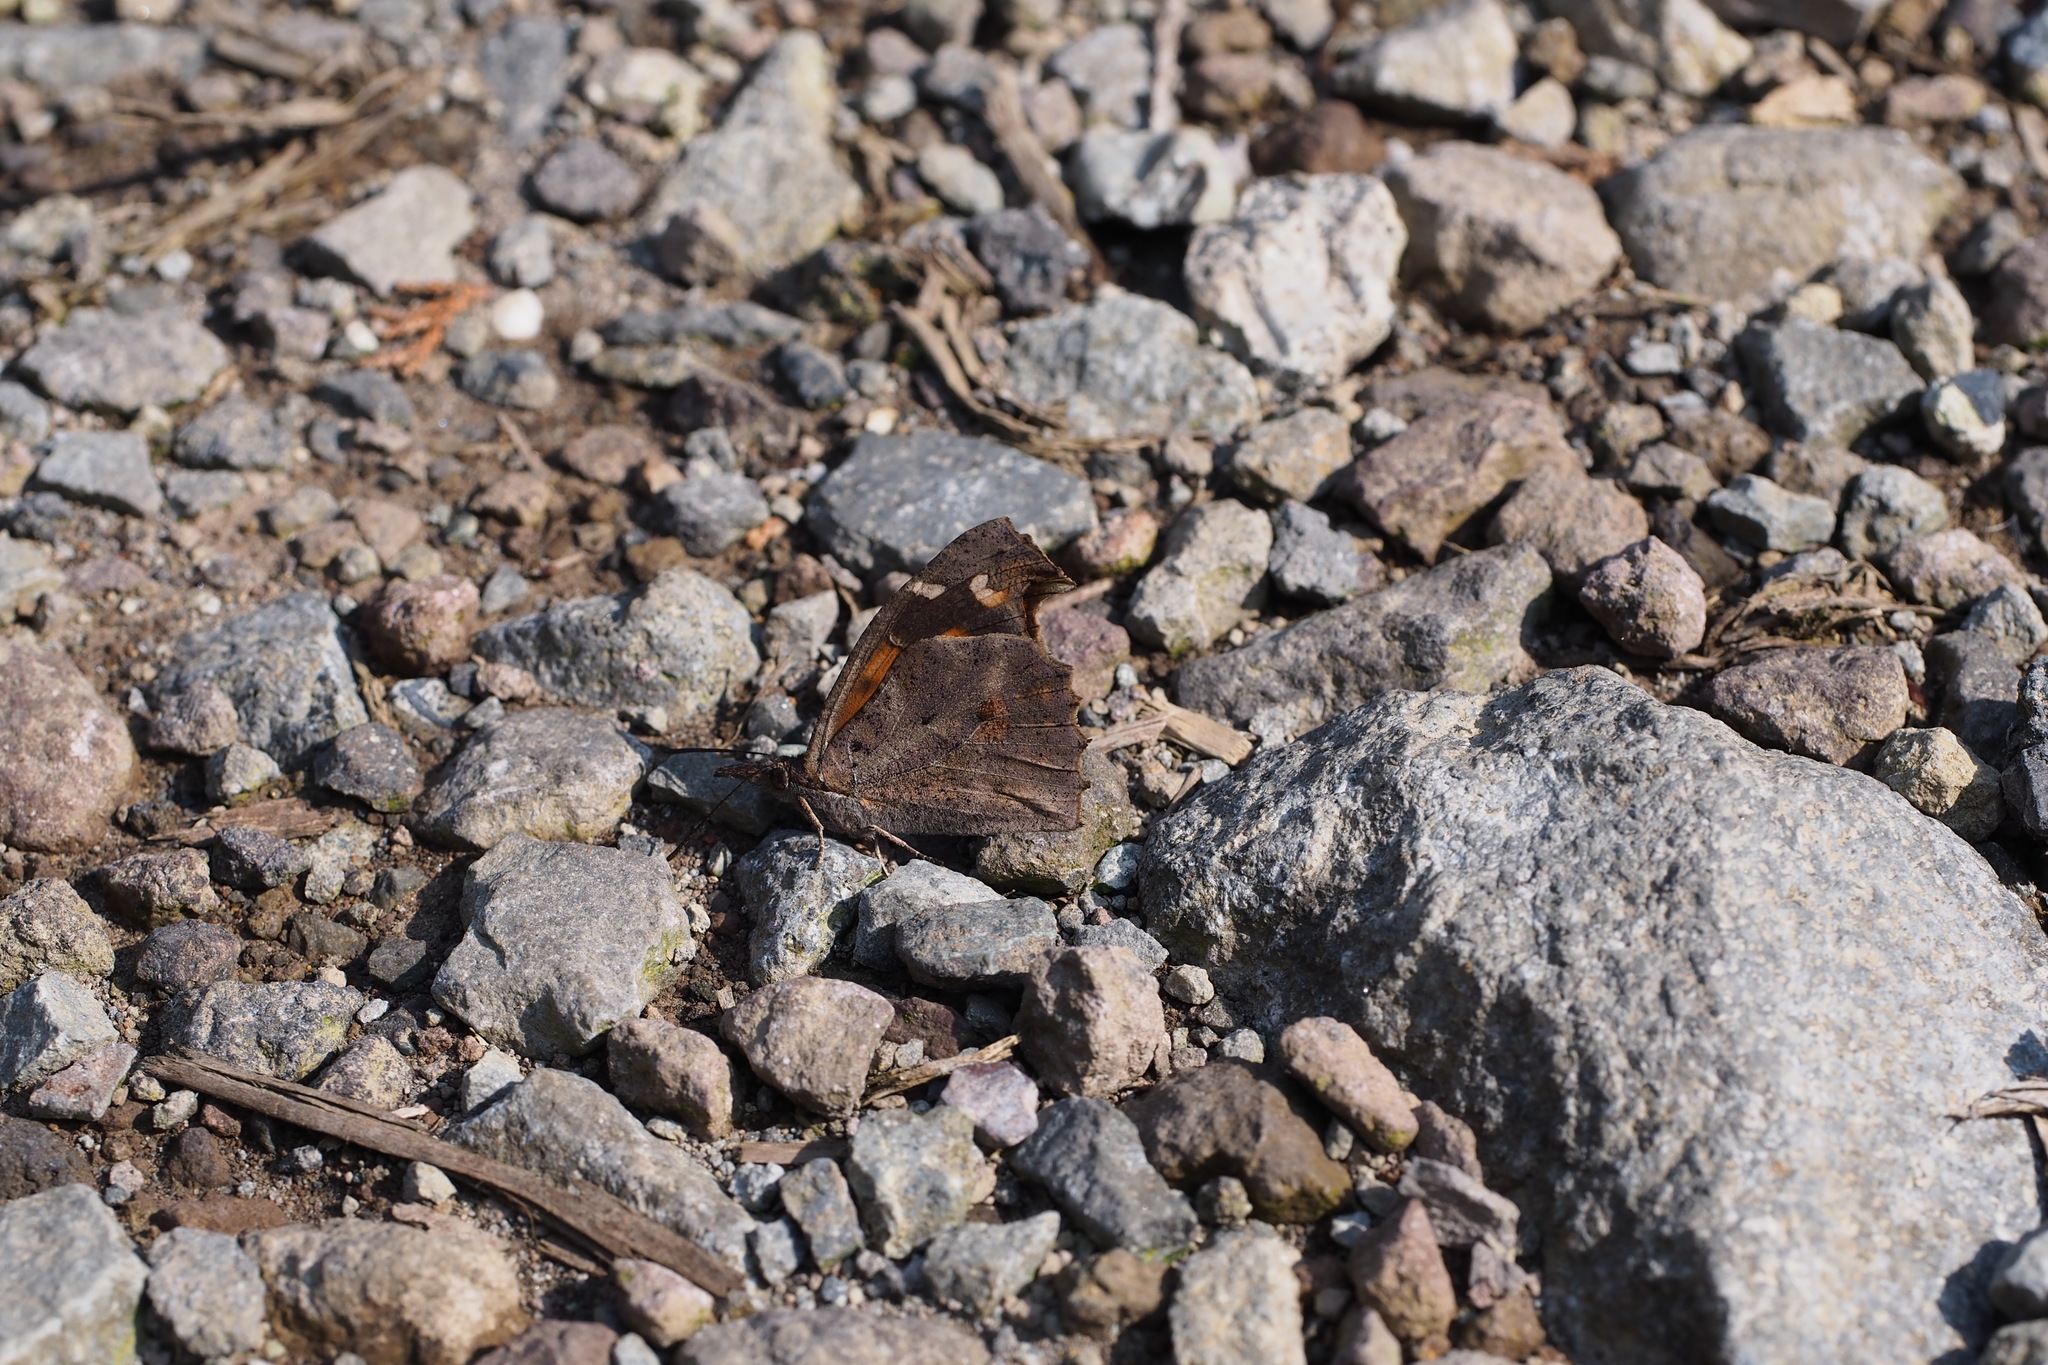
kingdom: Animalia
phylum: Arthropoda
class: Insecta
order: Lepidoptera
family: Nymphalidae
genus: Libythea
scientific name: Libythea lepita
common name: Common beak
